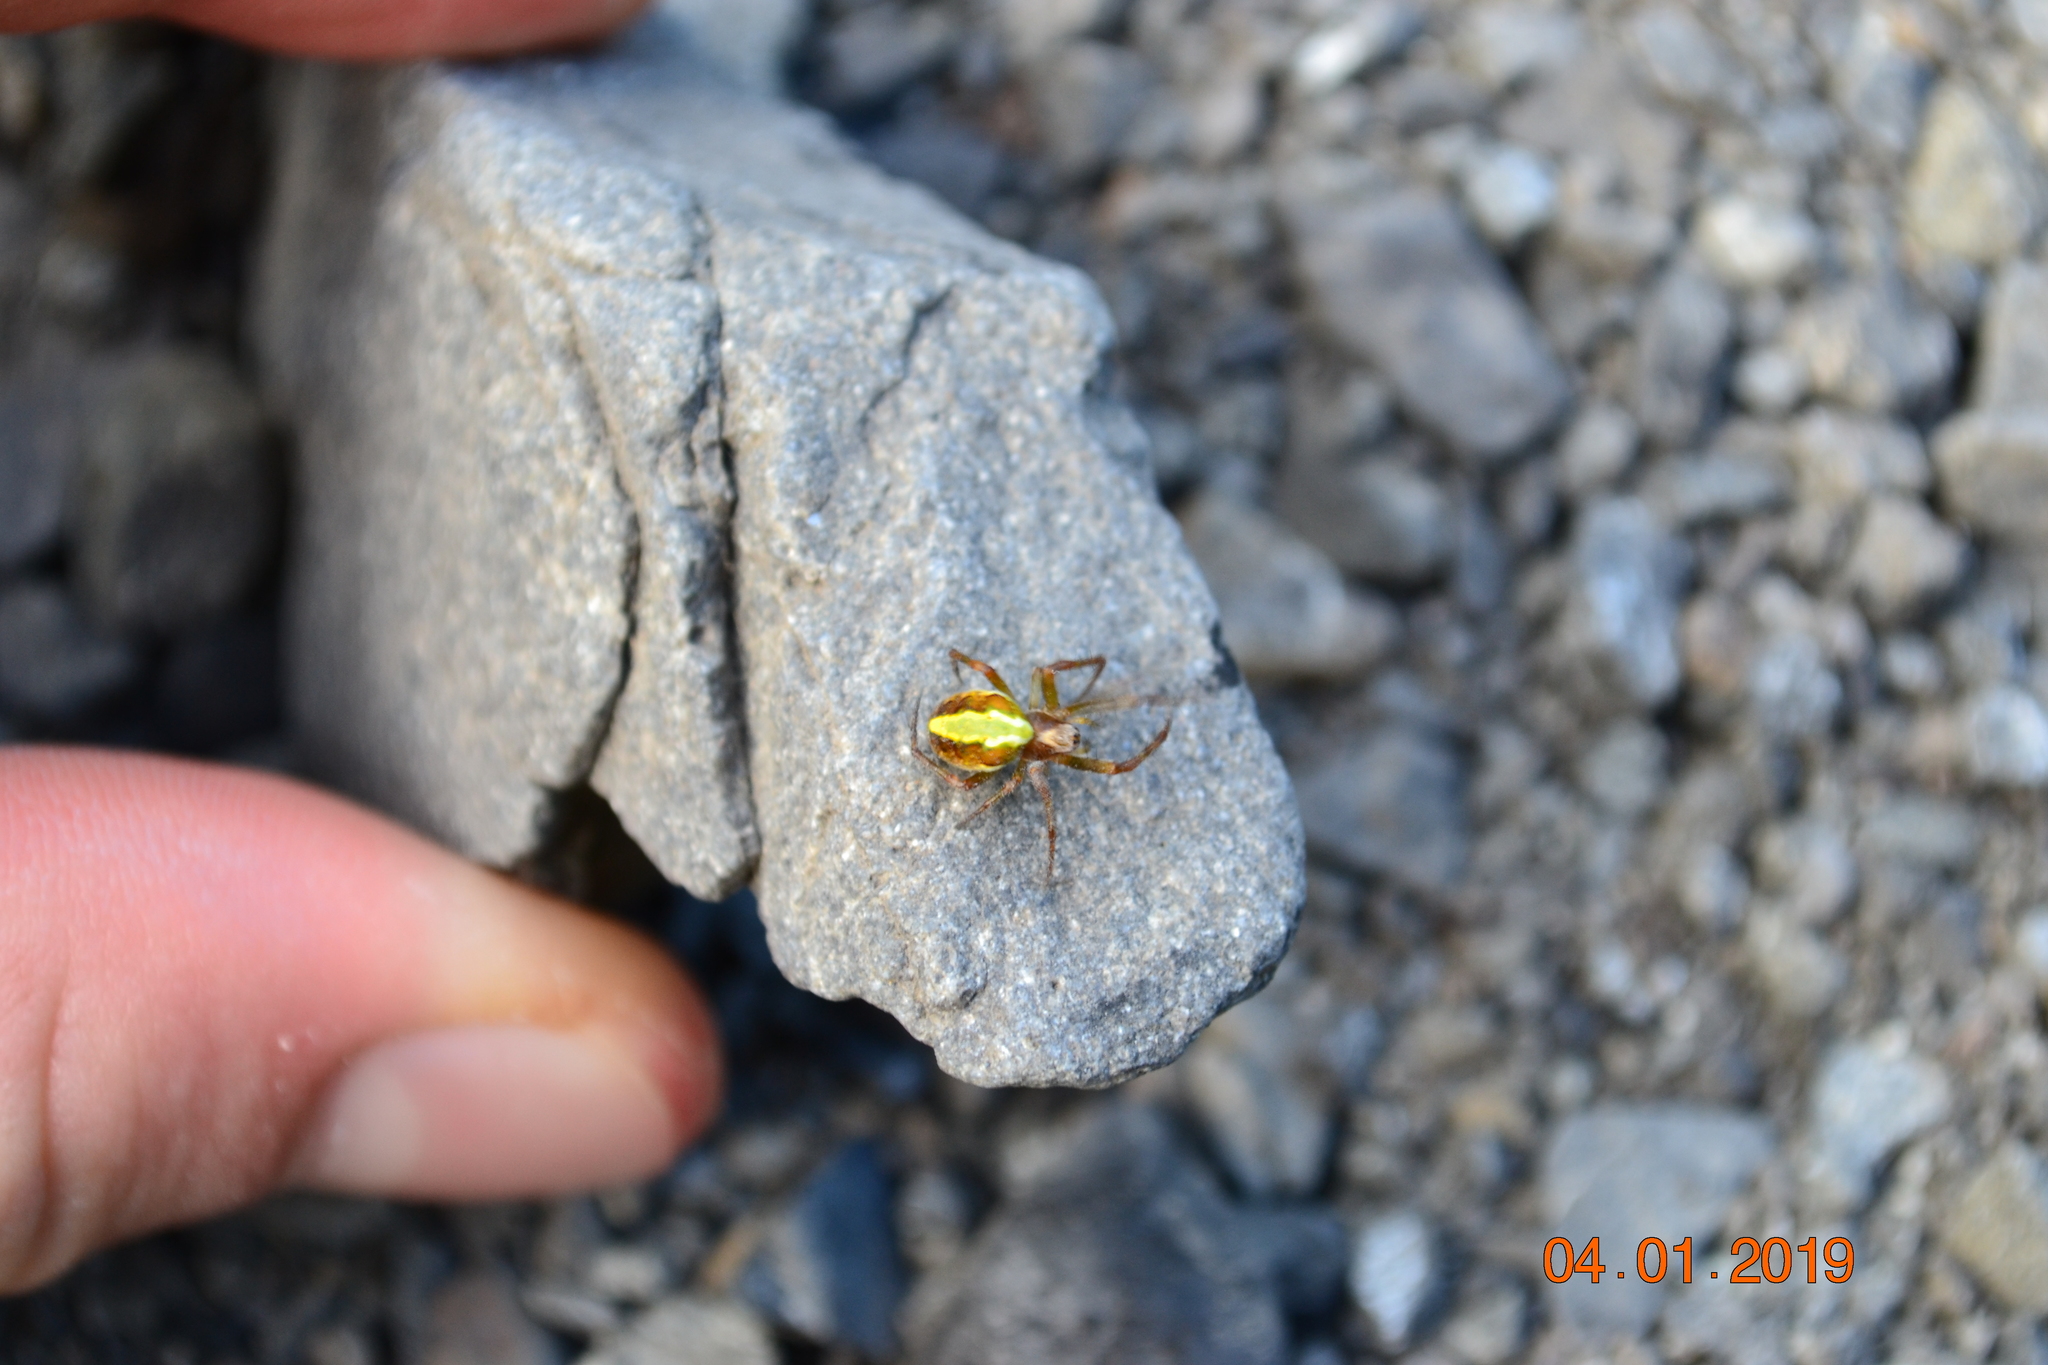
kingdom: Animalia
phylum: Arthropoda
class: Arachnida
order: Araneae
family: Araneidae
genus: Novaranea
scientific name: Novaranea queribunda
